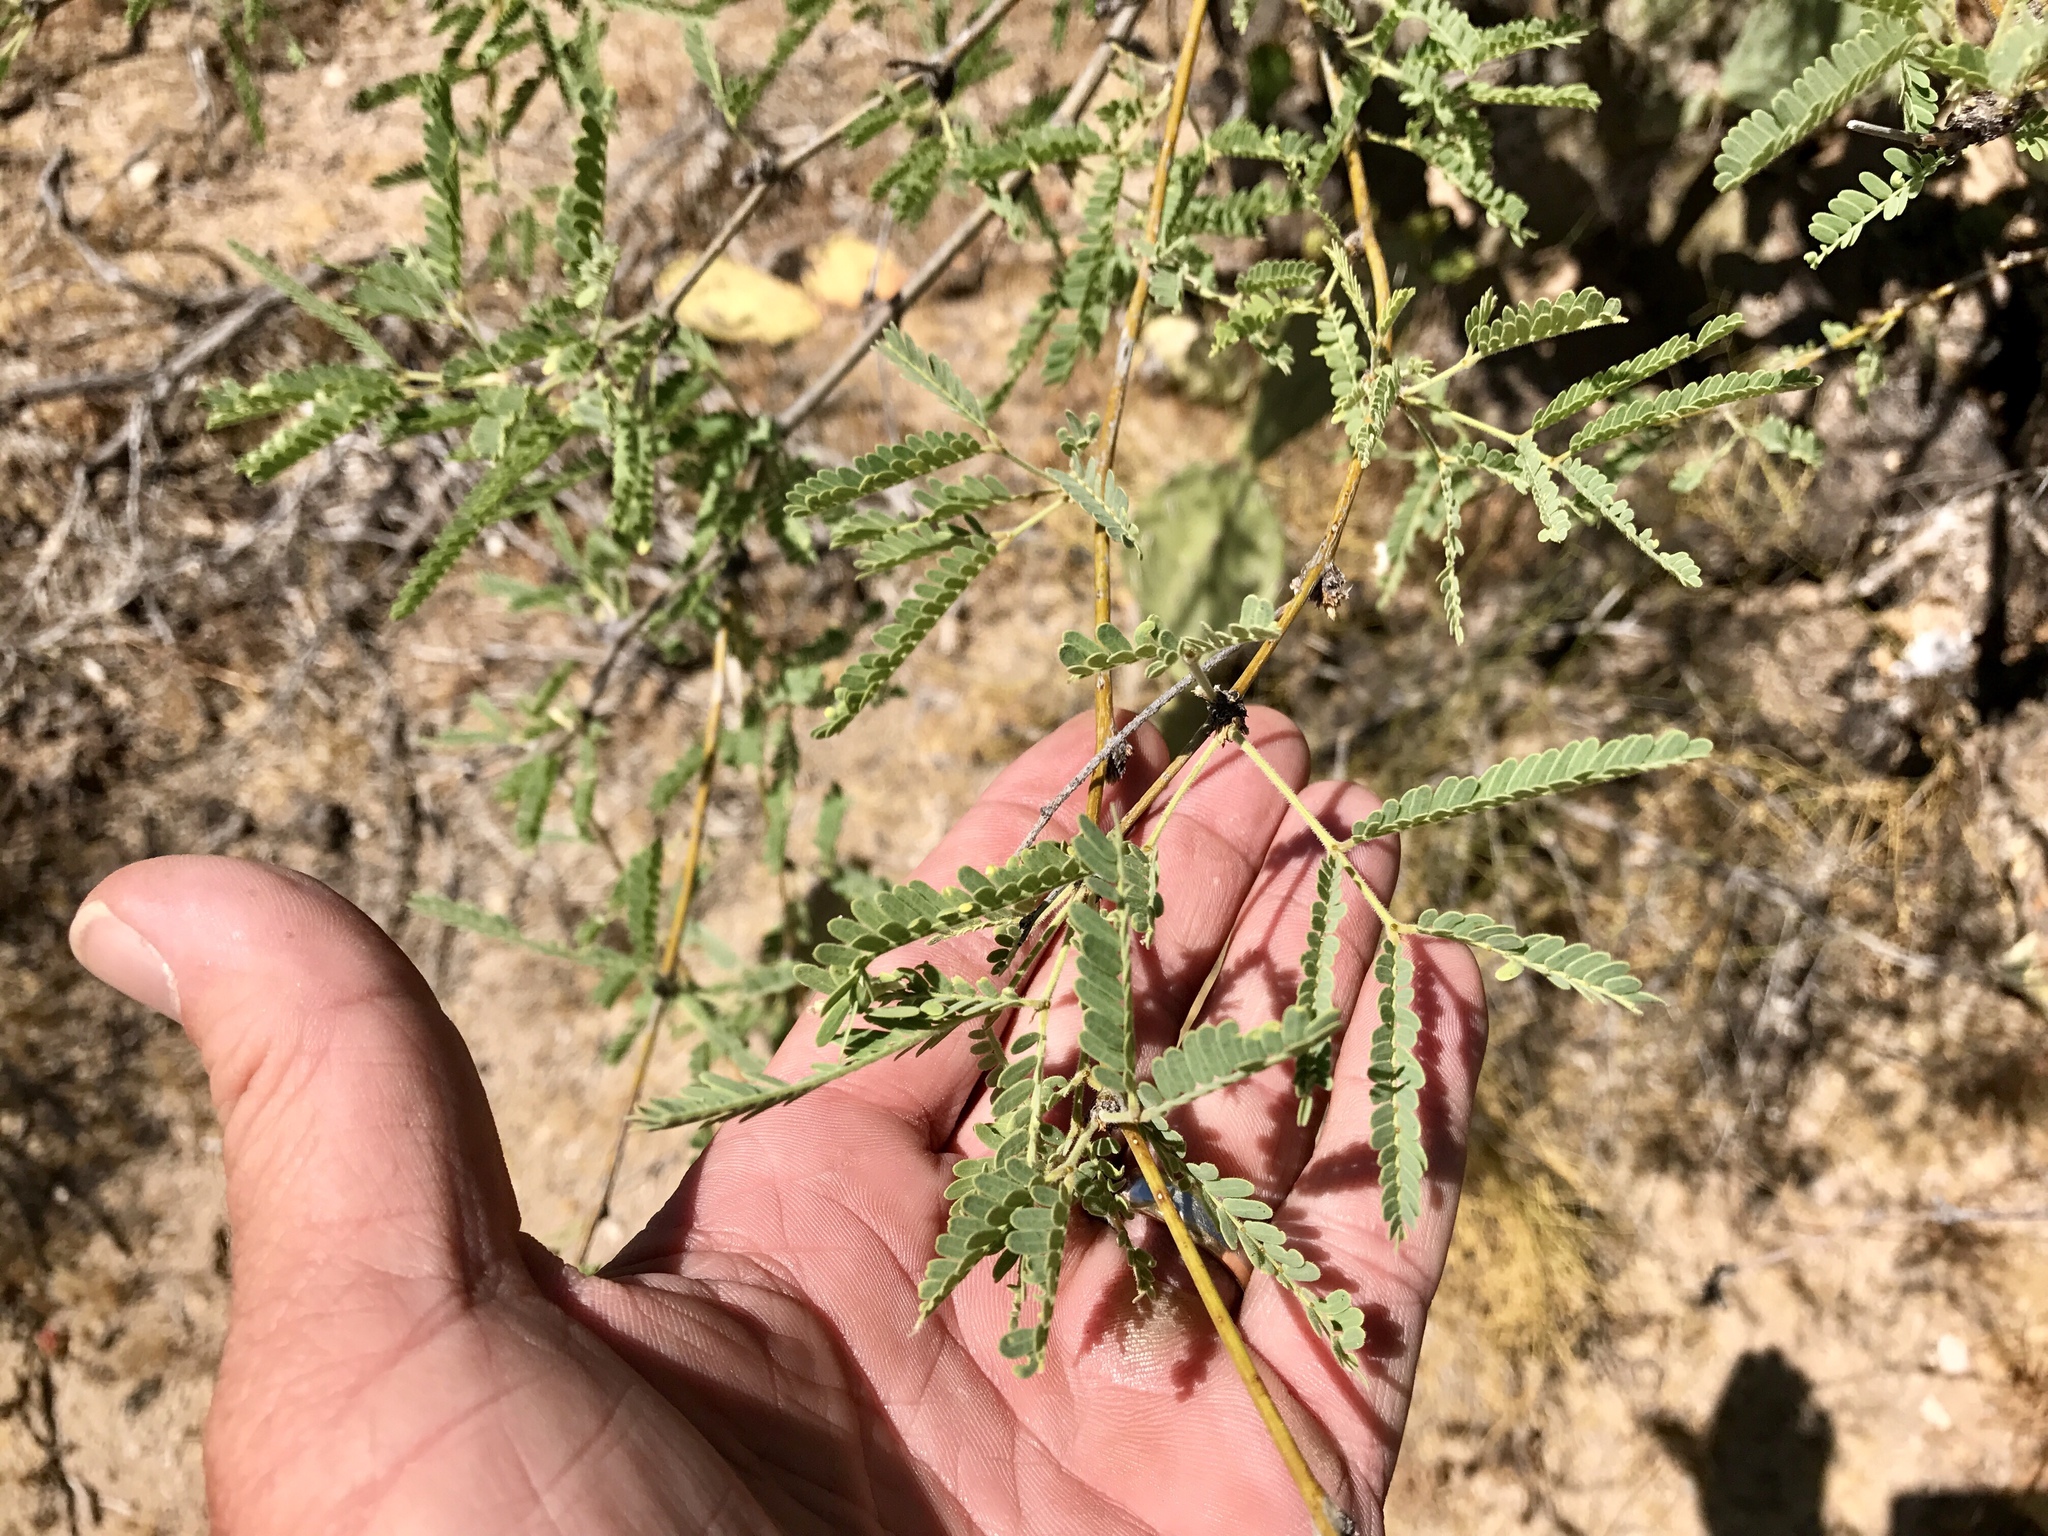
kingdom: Plantae
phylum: Tracheophyta
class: Magnoliopsida
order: Fabales
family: Fabaceae
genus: Prosopis
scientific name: Prosopis velutina
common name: Velvet mesquite
